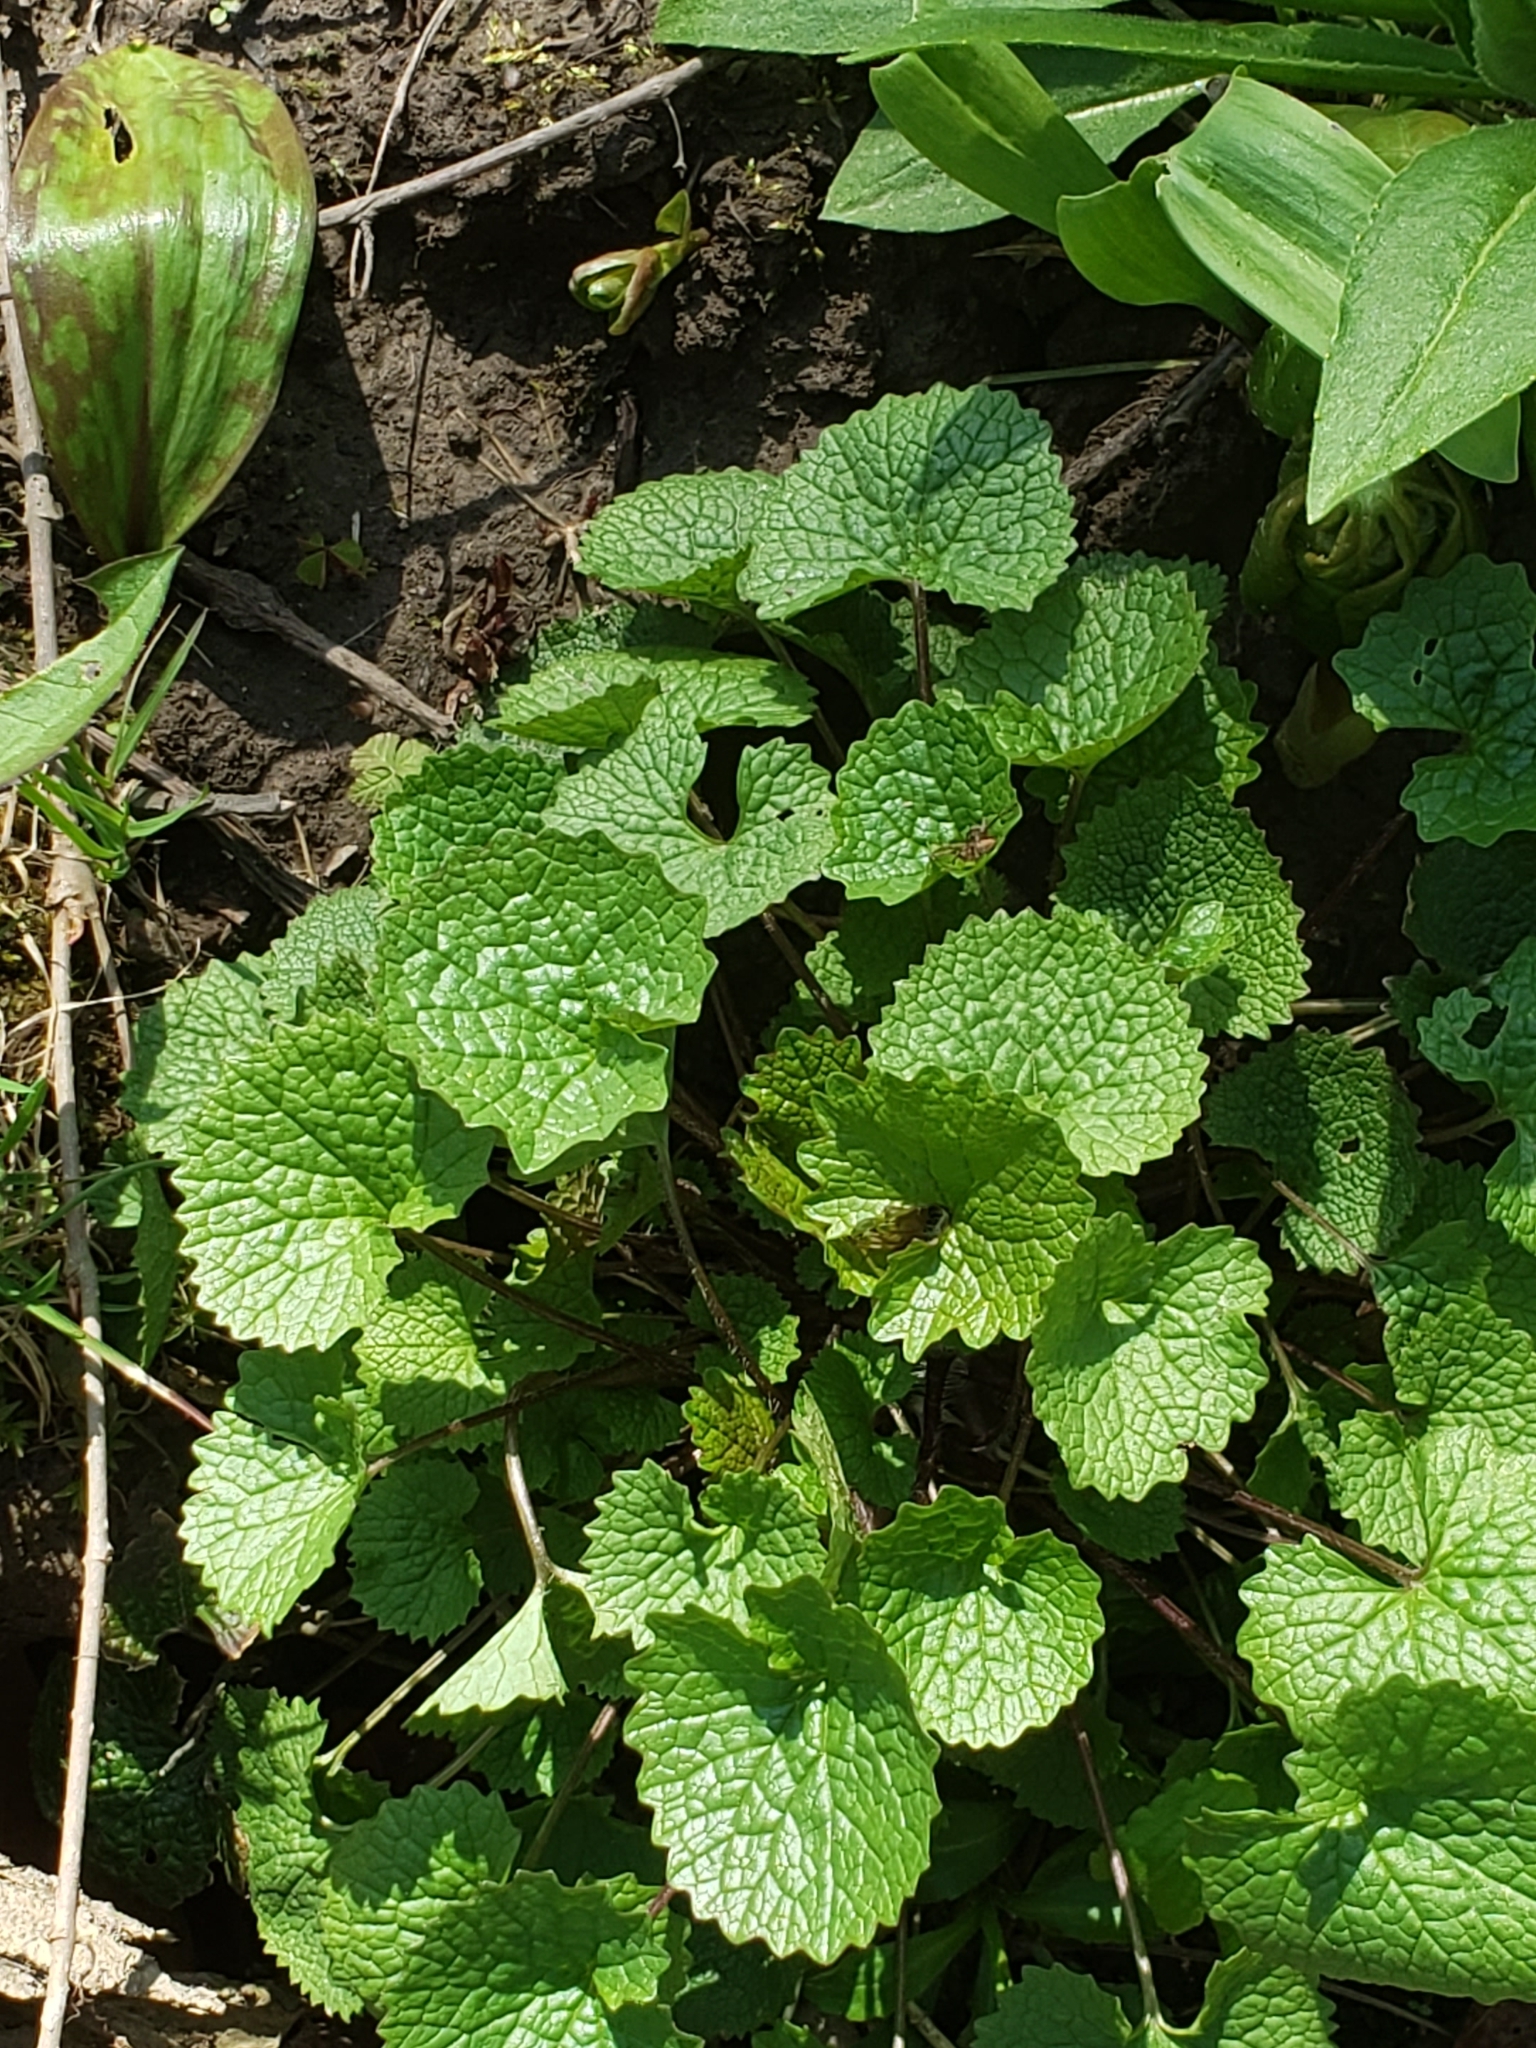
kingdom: Plantae
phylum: Tracheophyta
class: Magnoliopsida
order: Brassicales
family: Brassicaceae
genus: Alliaria
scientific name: Alliaria petiolata
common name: Garlic mustard
